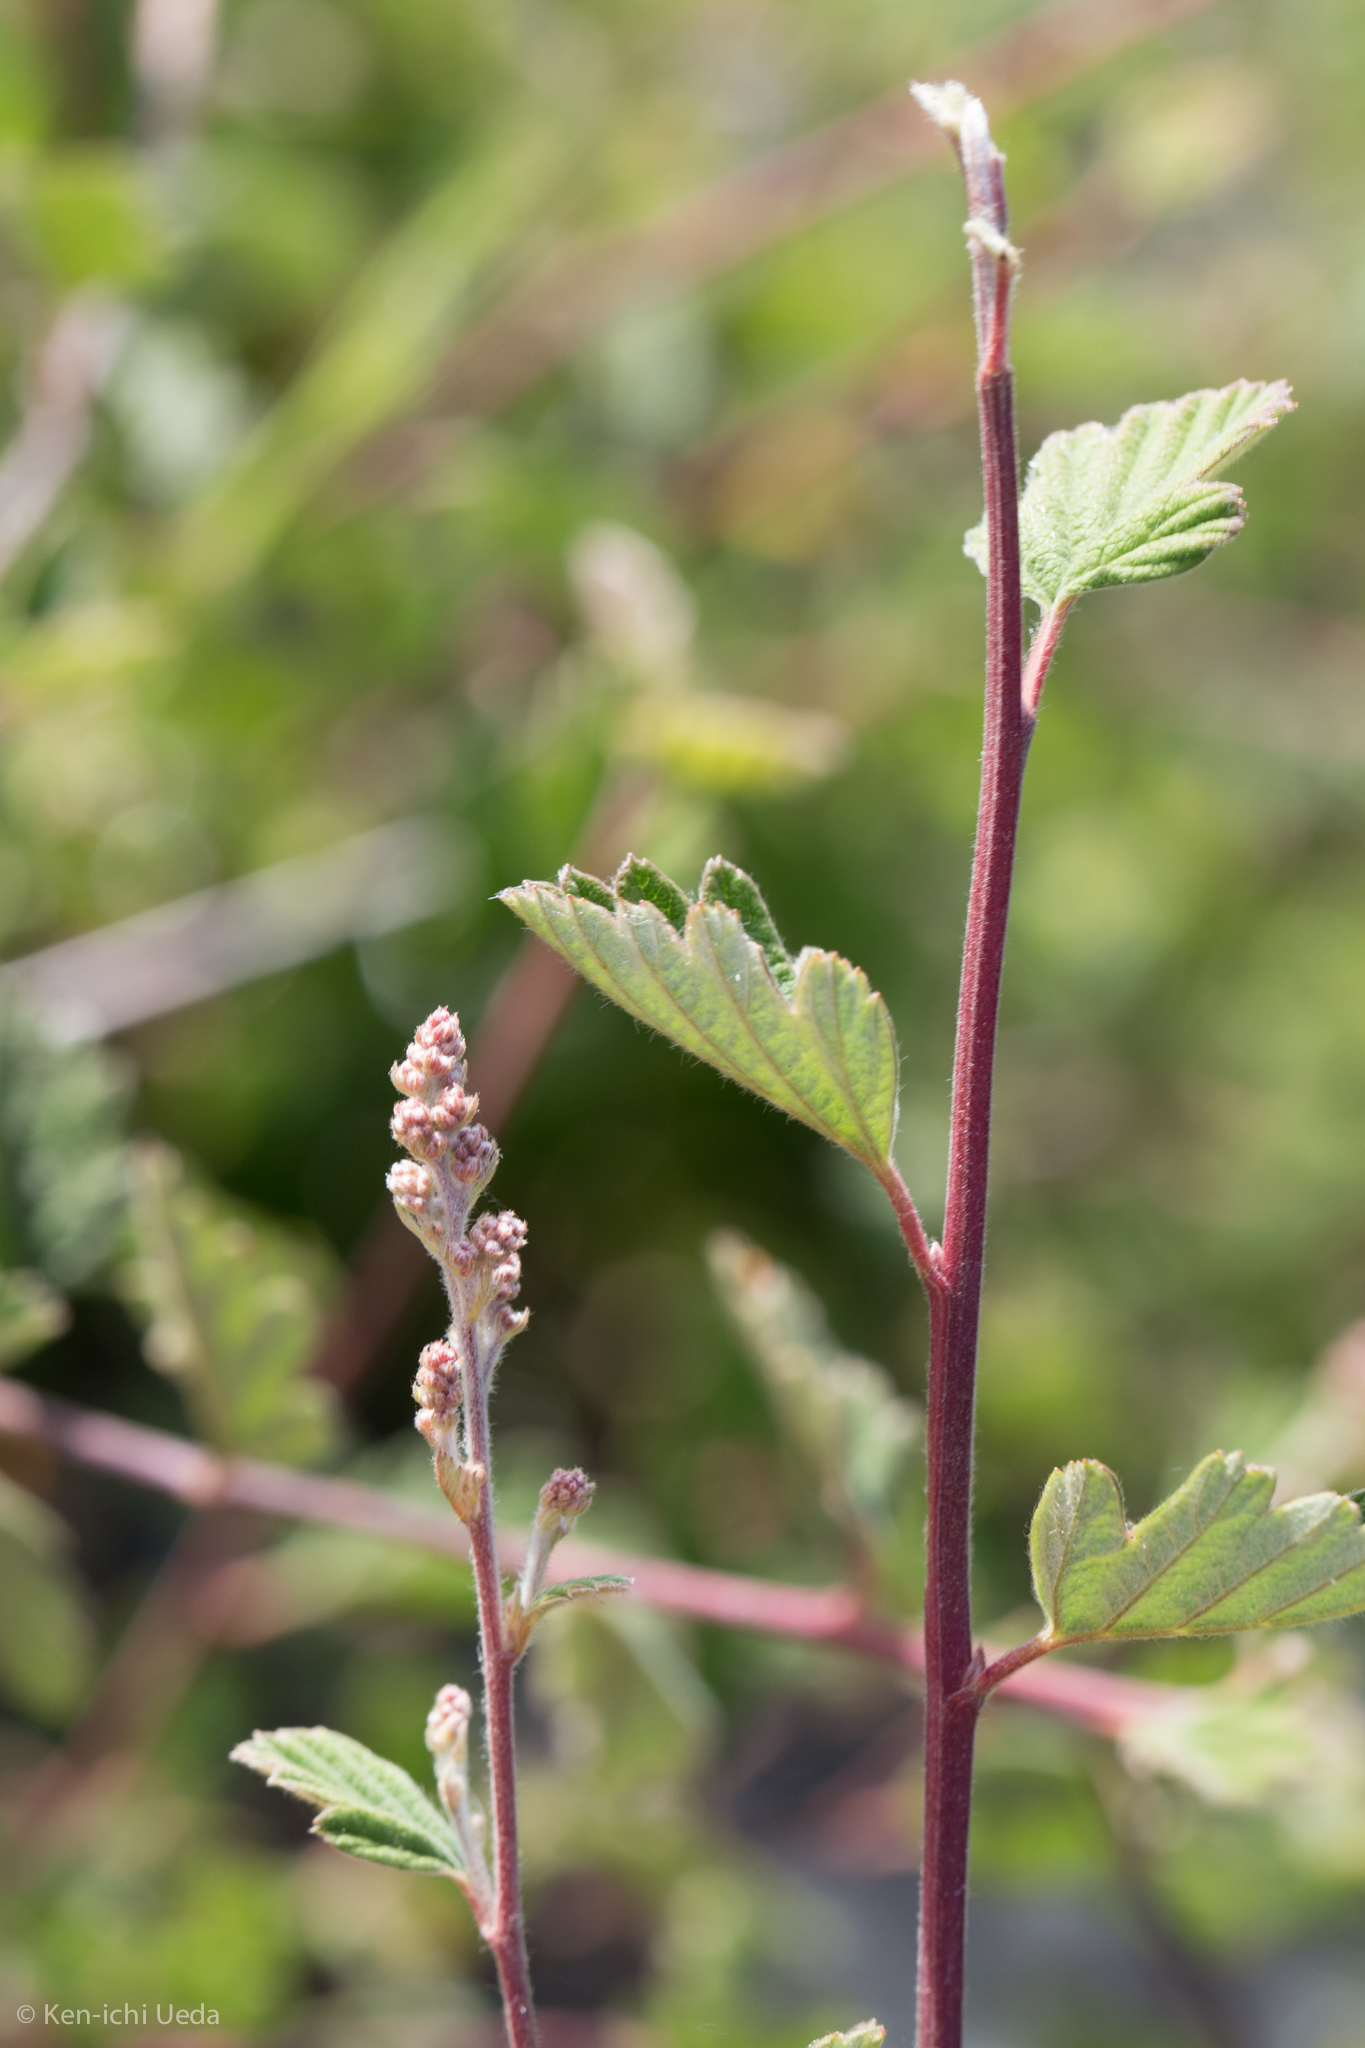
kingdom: Plantae
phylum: Tracheophyta
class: Magnoliopsida
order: Rosales
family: Rosaceae
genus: Holodiscus
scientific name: Holodiscus discolor
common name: Oceanspray
